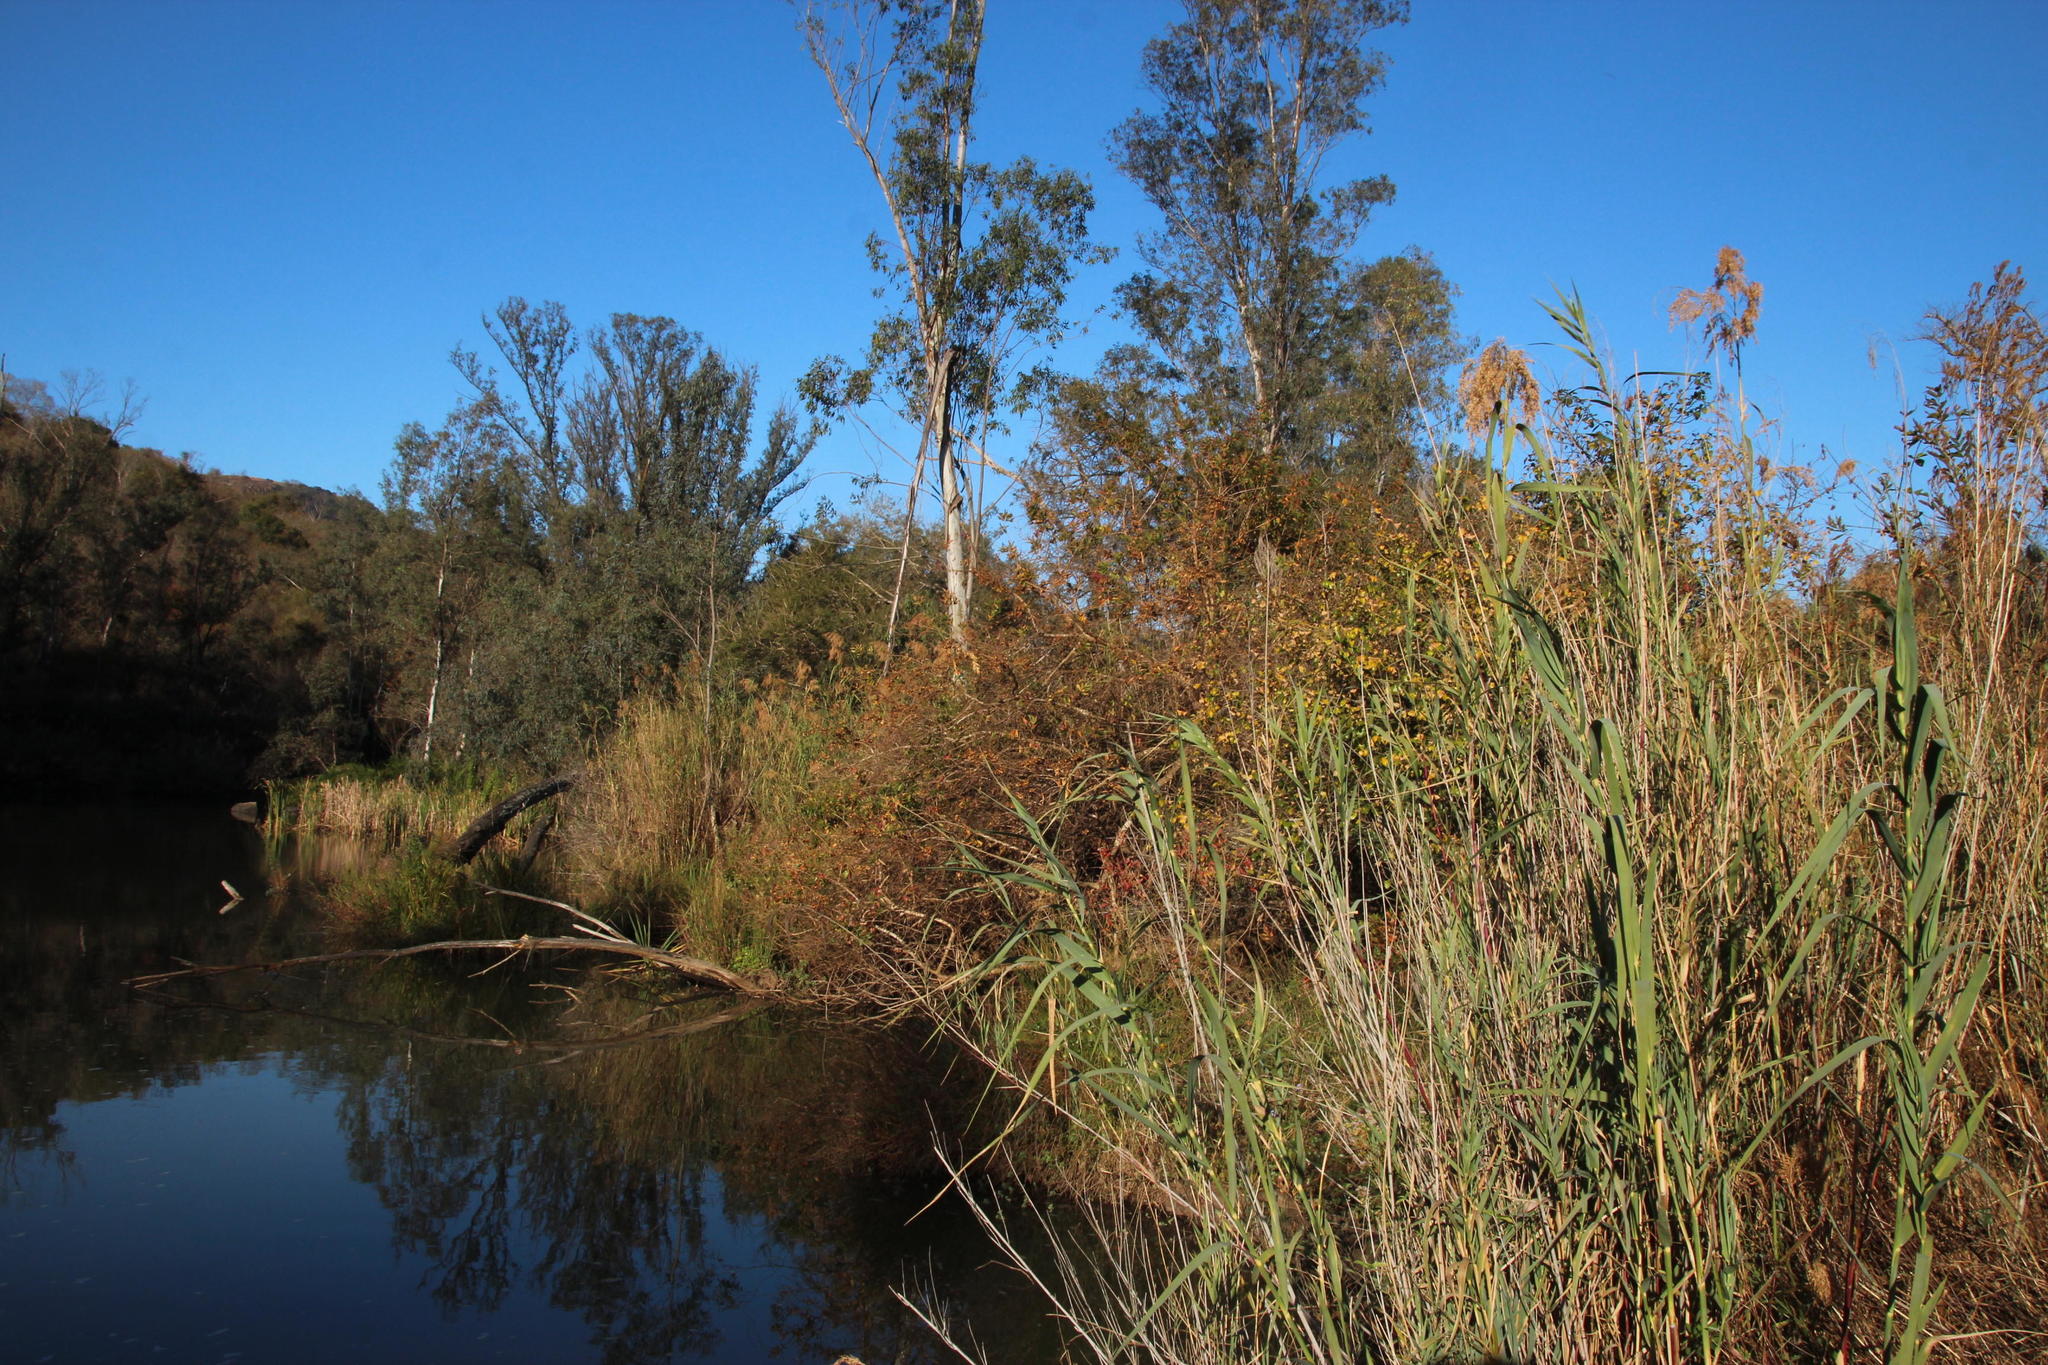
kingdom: Plantae
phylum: Tracheophyta
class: Liliopsida
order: Poales
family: Poaceae
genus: Phragmites
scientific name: Phragmites australis
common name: Common reed
